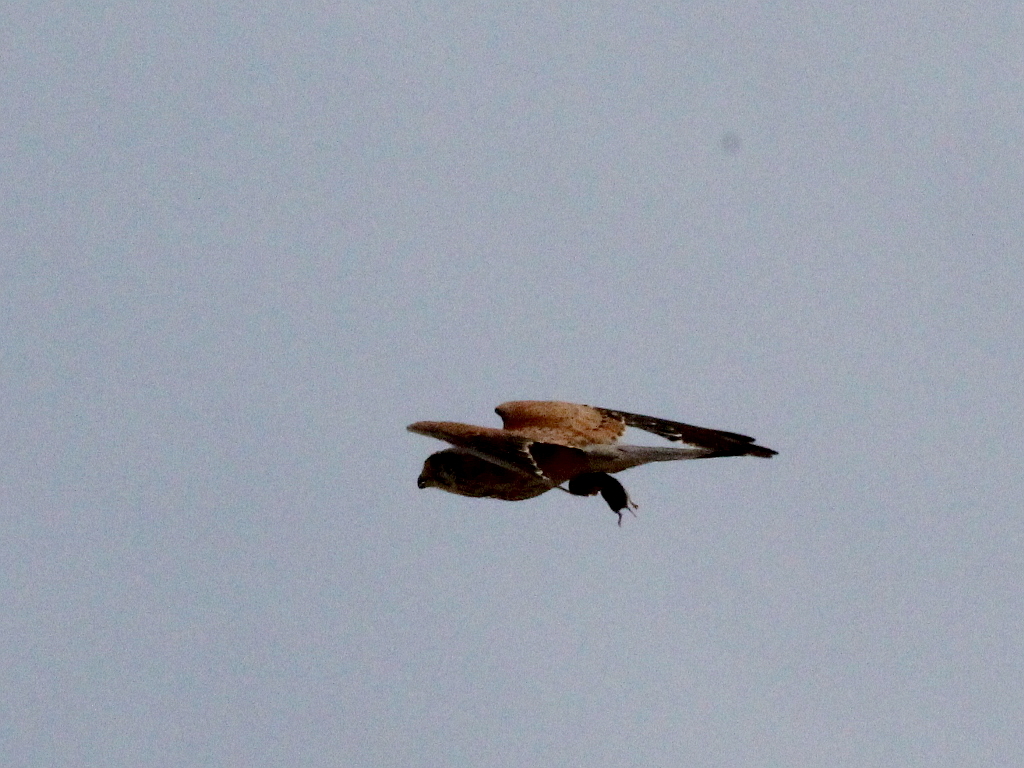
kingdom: Animalia
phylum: Chordata
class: Aves
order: Falconiformes
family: Falconidae
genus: Falco
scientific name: Falco tinnunculus
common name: Common kestrel
